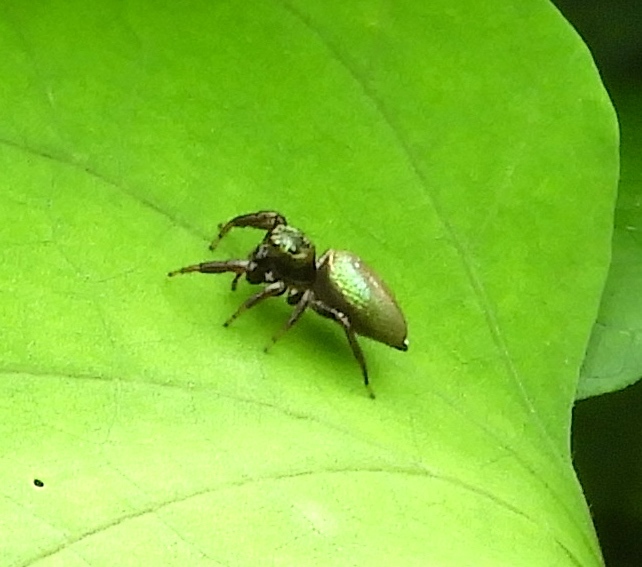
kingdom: Animalia
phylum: Arthropoda
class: Arachnida
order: Araneae
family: Salticidae
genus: Messua
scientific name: Messua
